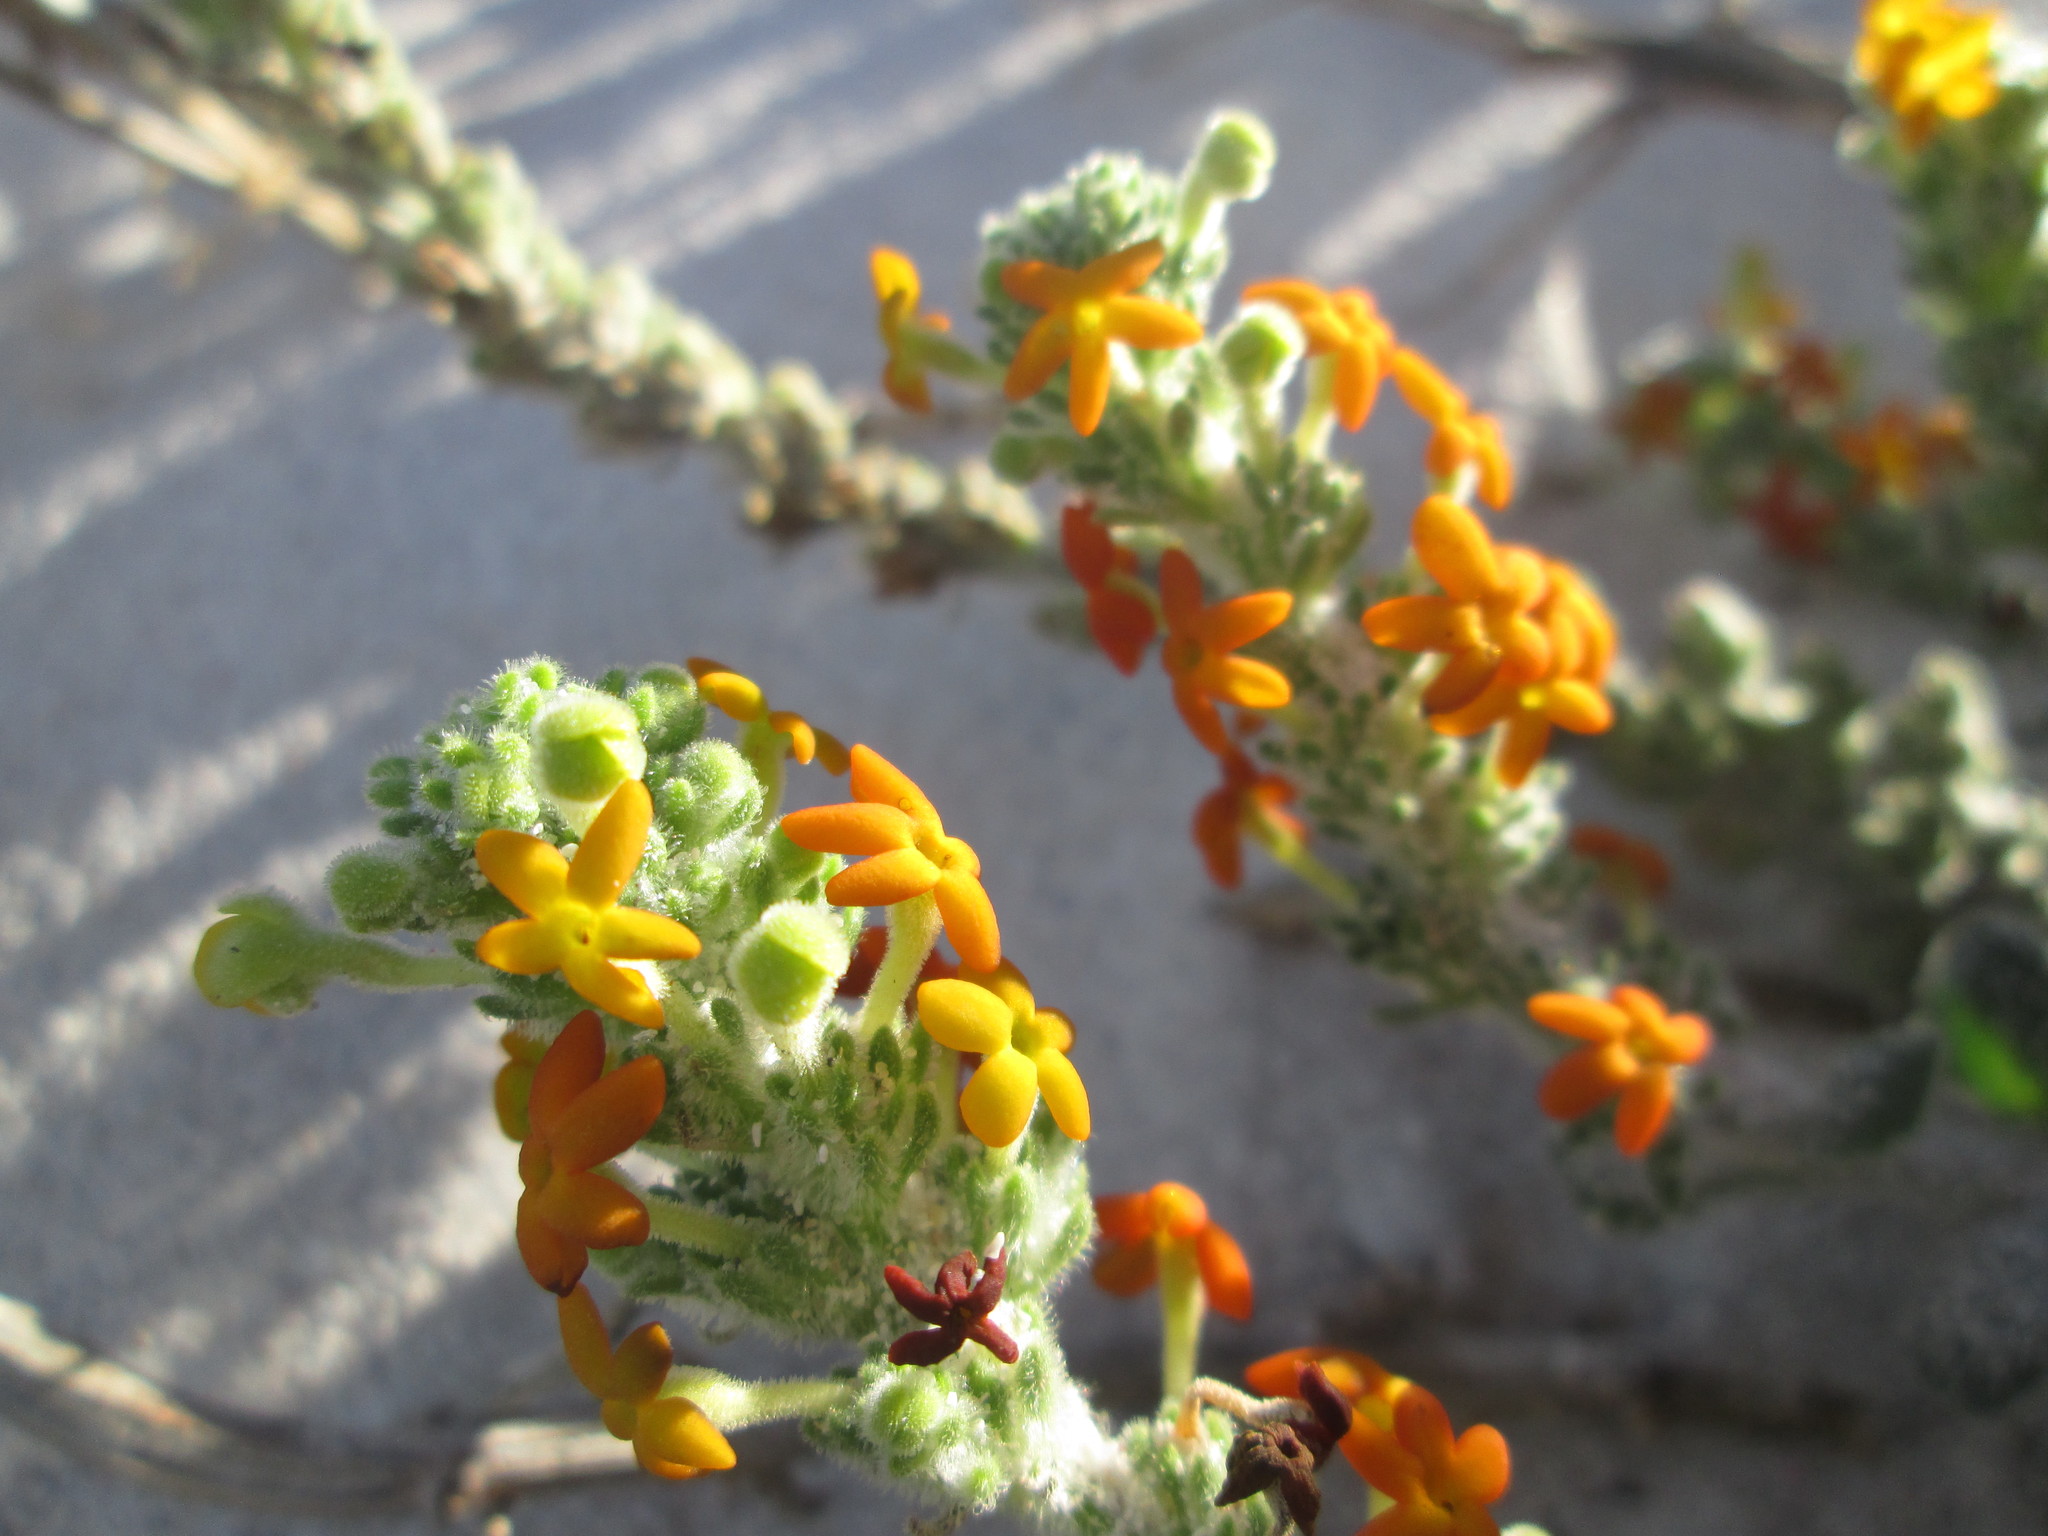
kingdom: Plantae
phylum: Tracheophyta
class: Magnoliopsida
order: Lamiales
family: Scrophulariaceae
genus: Manulea
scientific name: Manulea tomentosa
